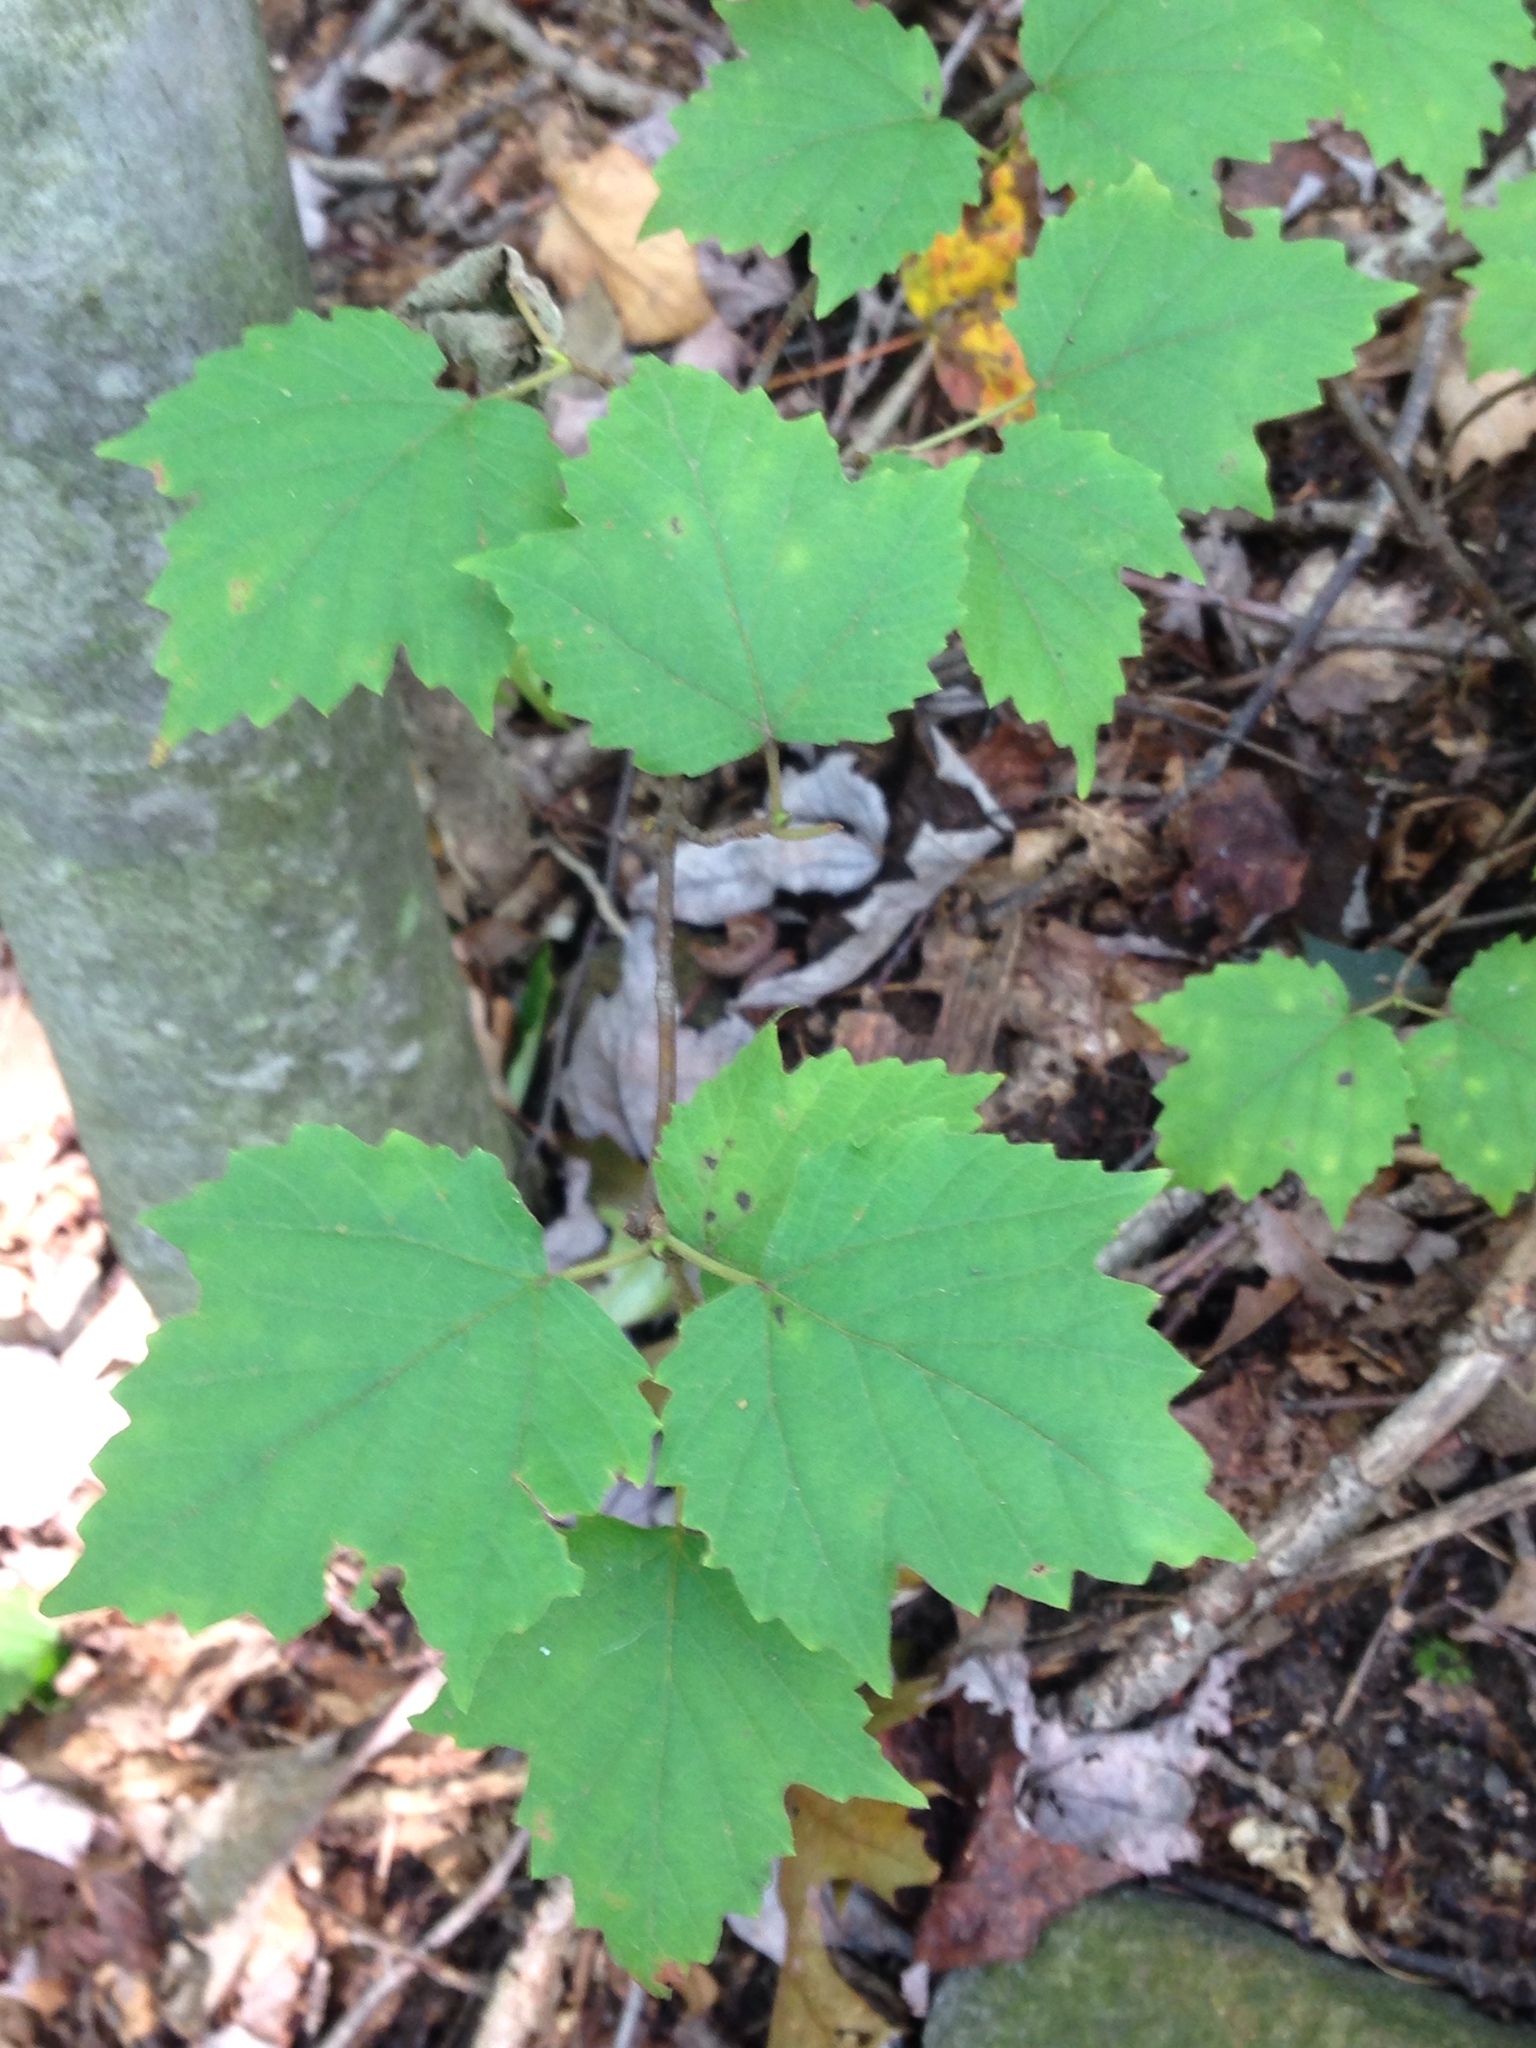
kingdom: Plantae
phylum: Tracheophyta
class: Magnoliopsida
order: Dipsacales
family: Viburnaceae
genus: Viburnum
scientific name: Viburnum acerifolium
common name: Dockmackie
